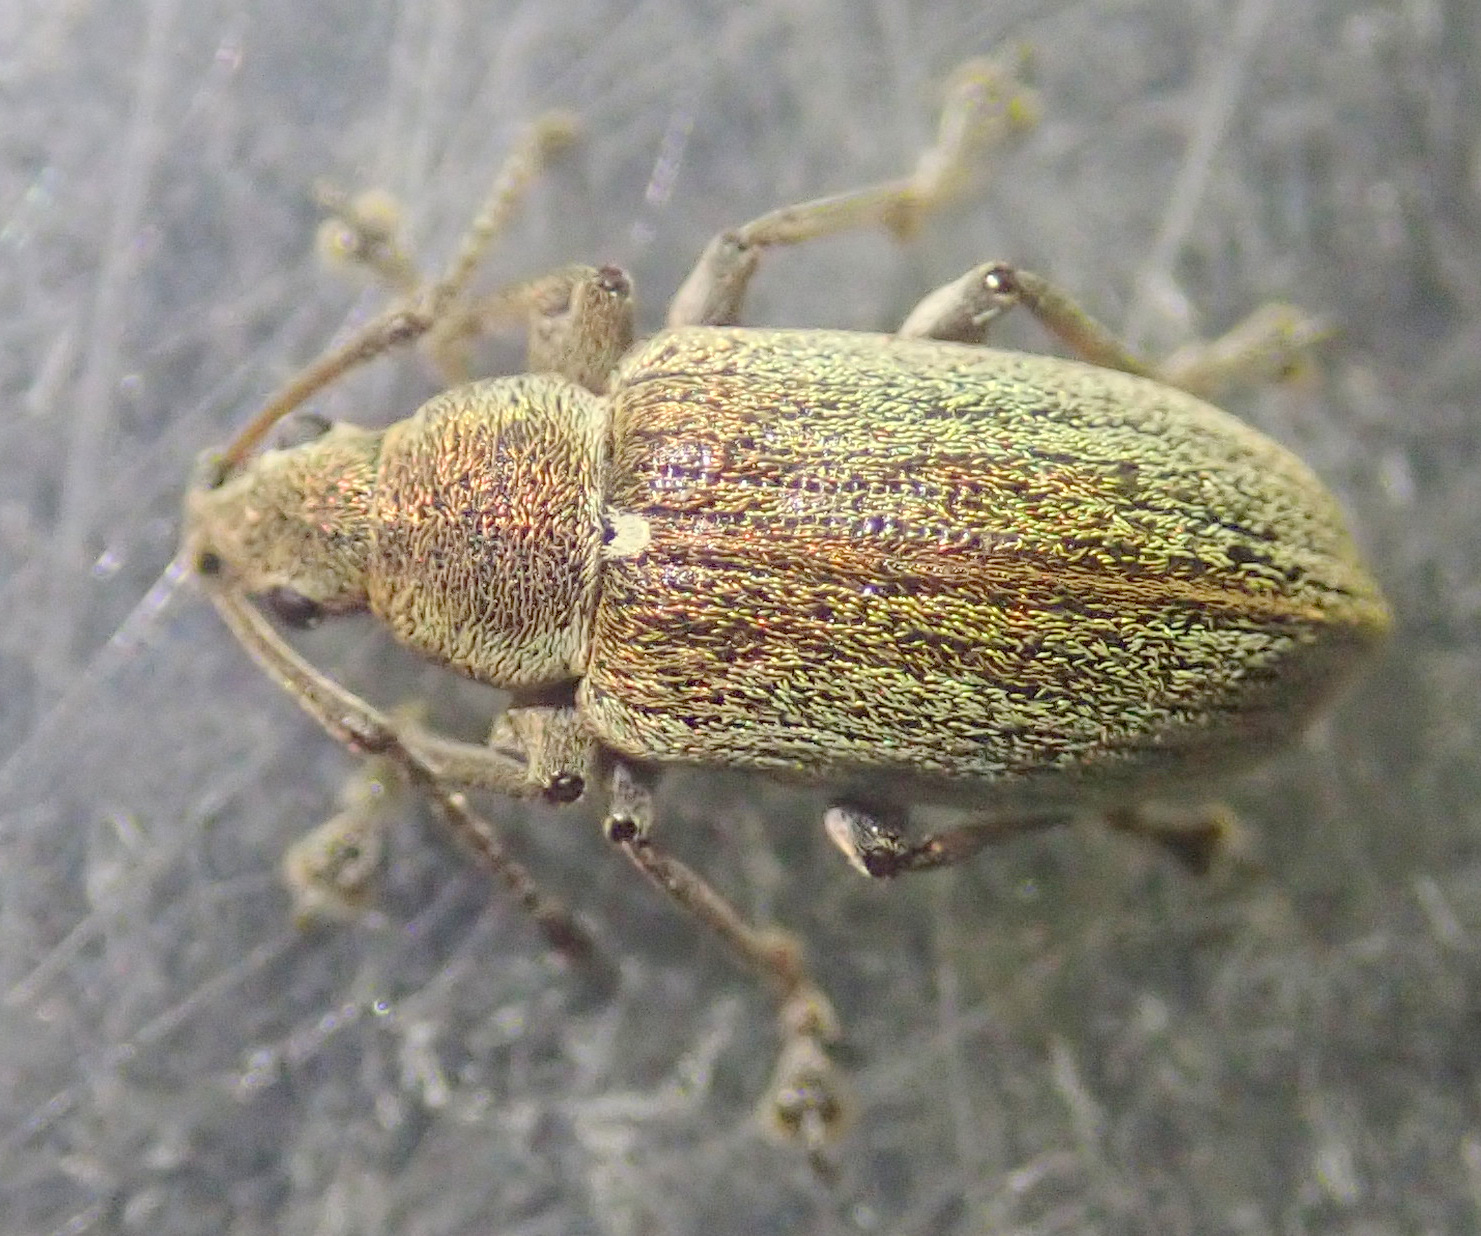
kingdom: Animalia
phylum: Arthropoda
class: Insecta
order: Coleoptera
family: Curculionidae
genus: Phyllobius
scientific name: Phyllobius pyri
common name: Common leaf weevil
